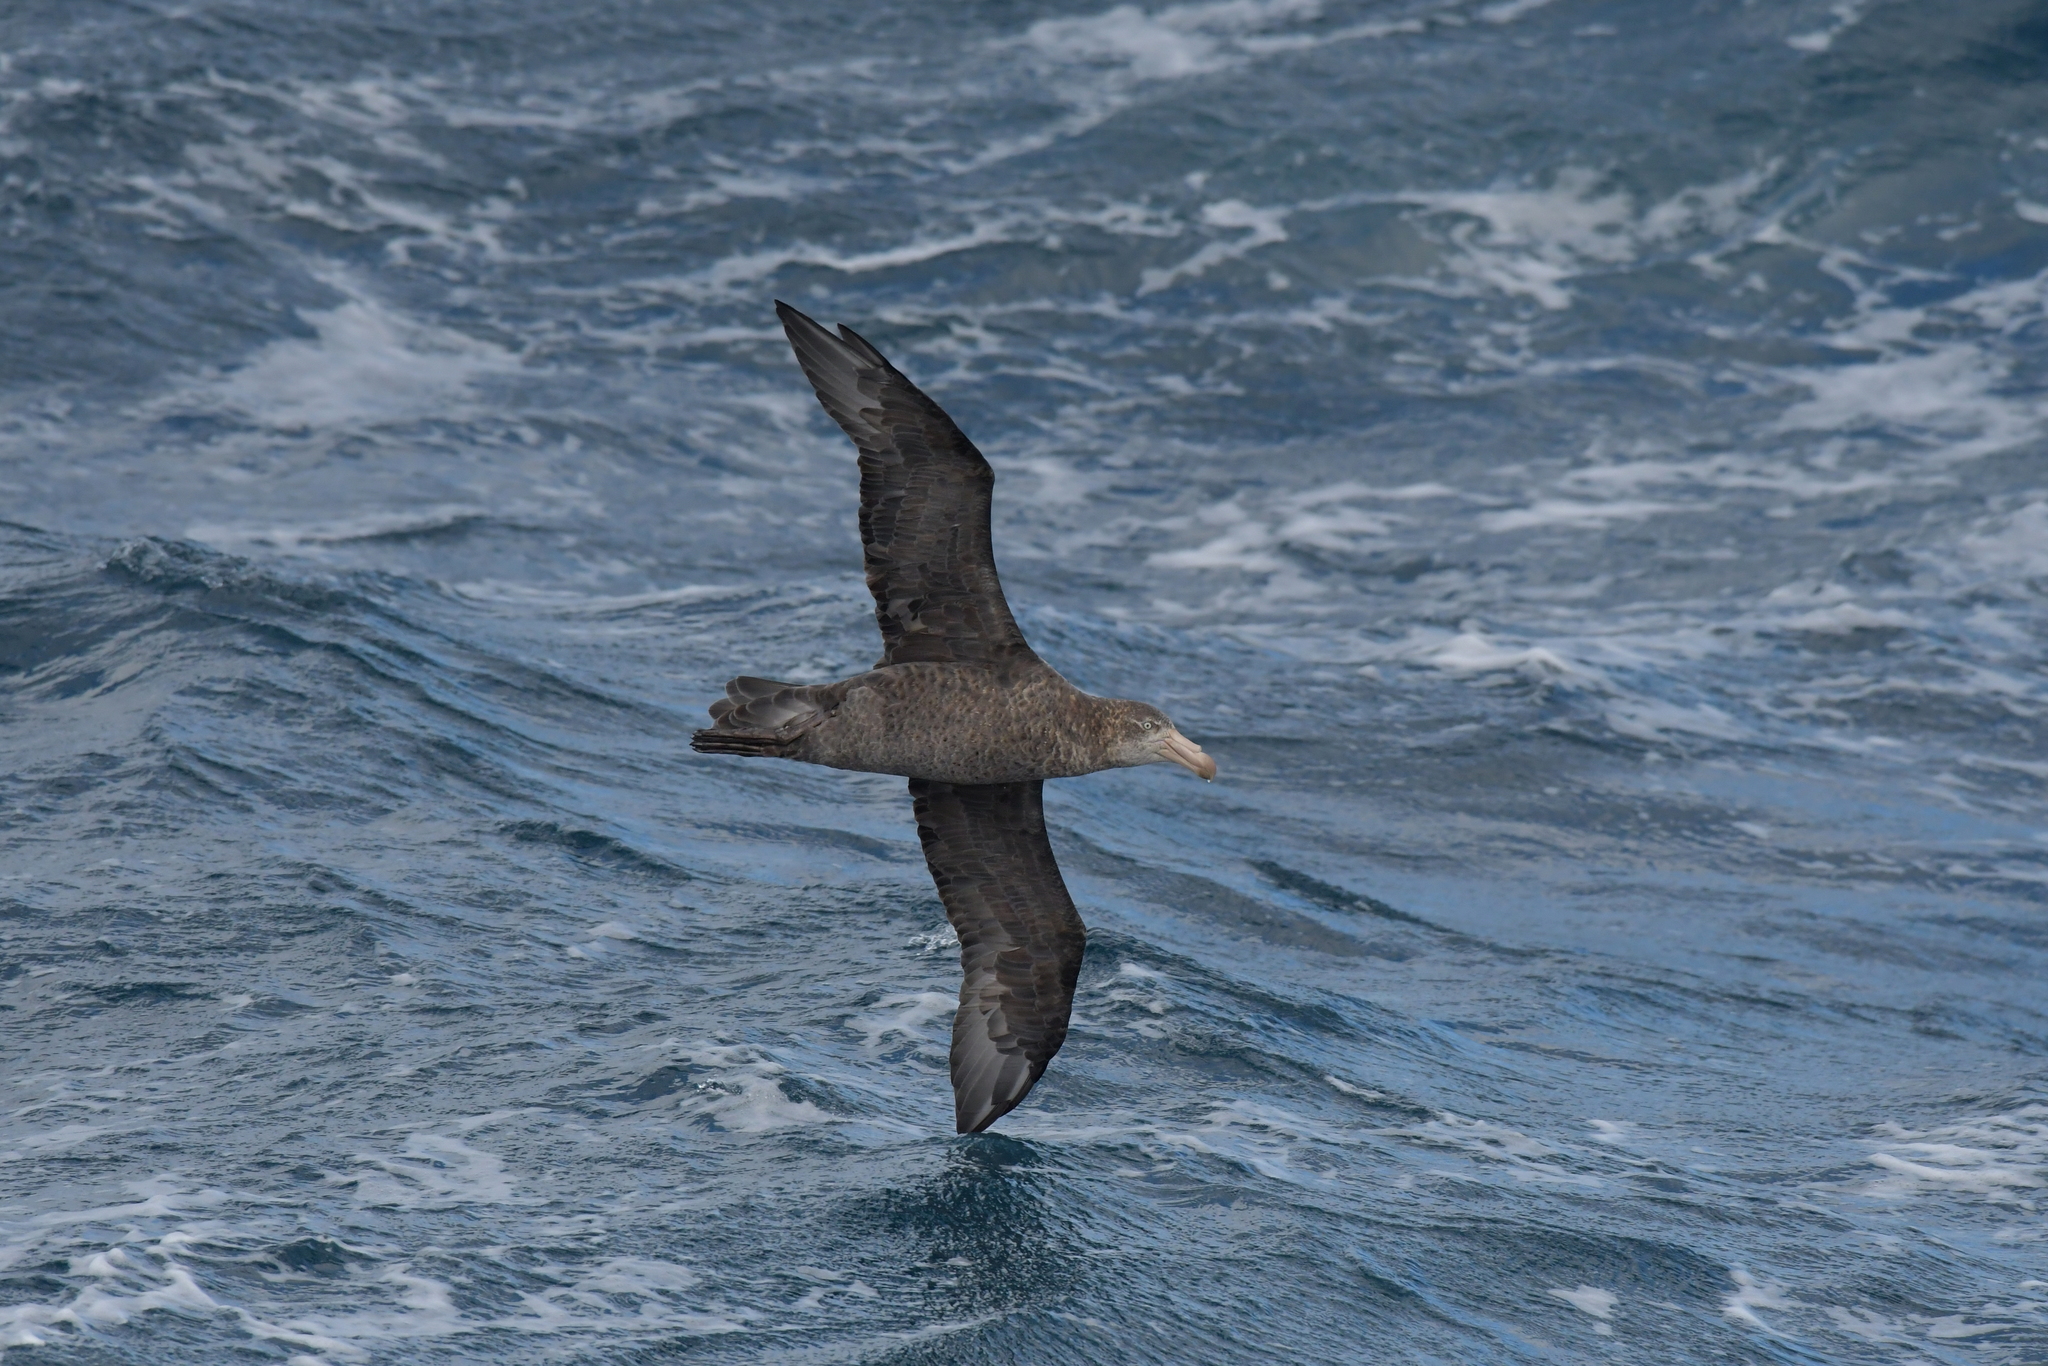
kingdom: Animalia
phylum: Chordata
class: Aves
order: Procellariiformes
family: Procellariidae
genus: Macronectes
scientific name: Macronectes halli
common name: Northern giant petrel
